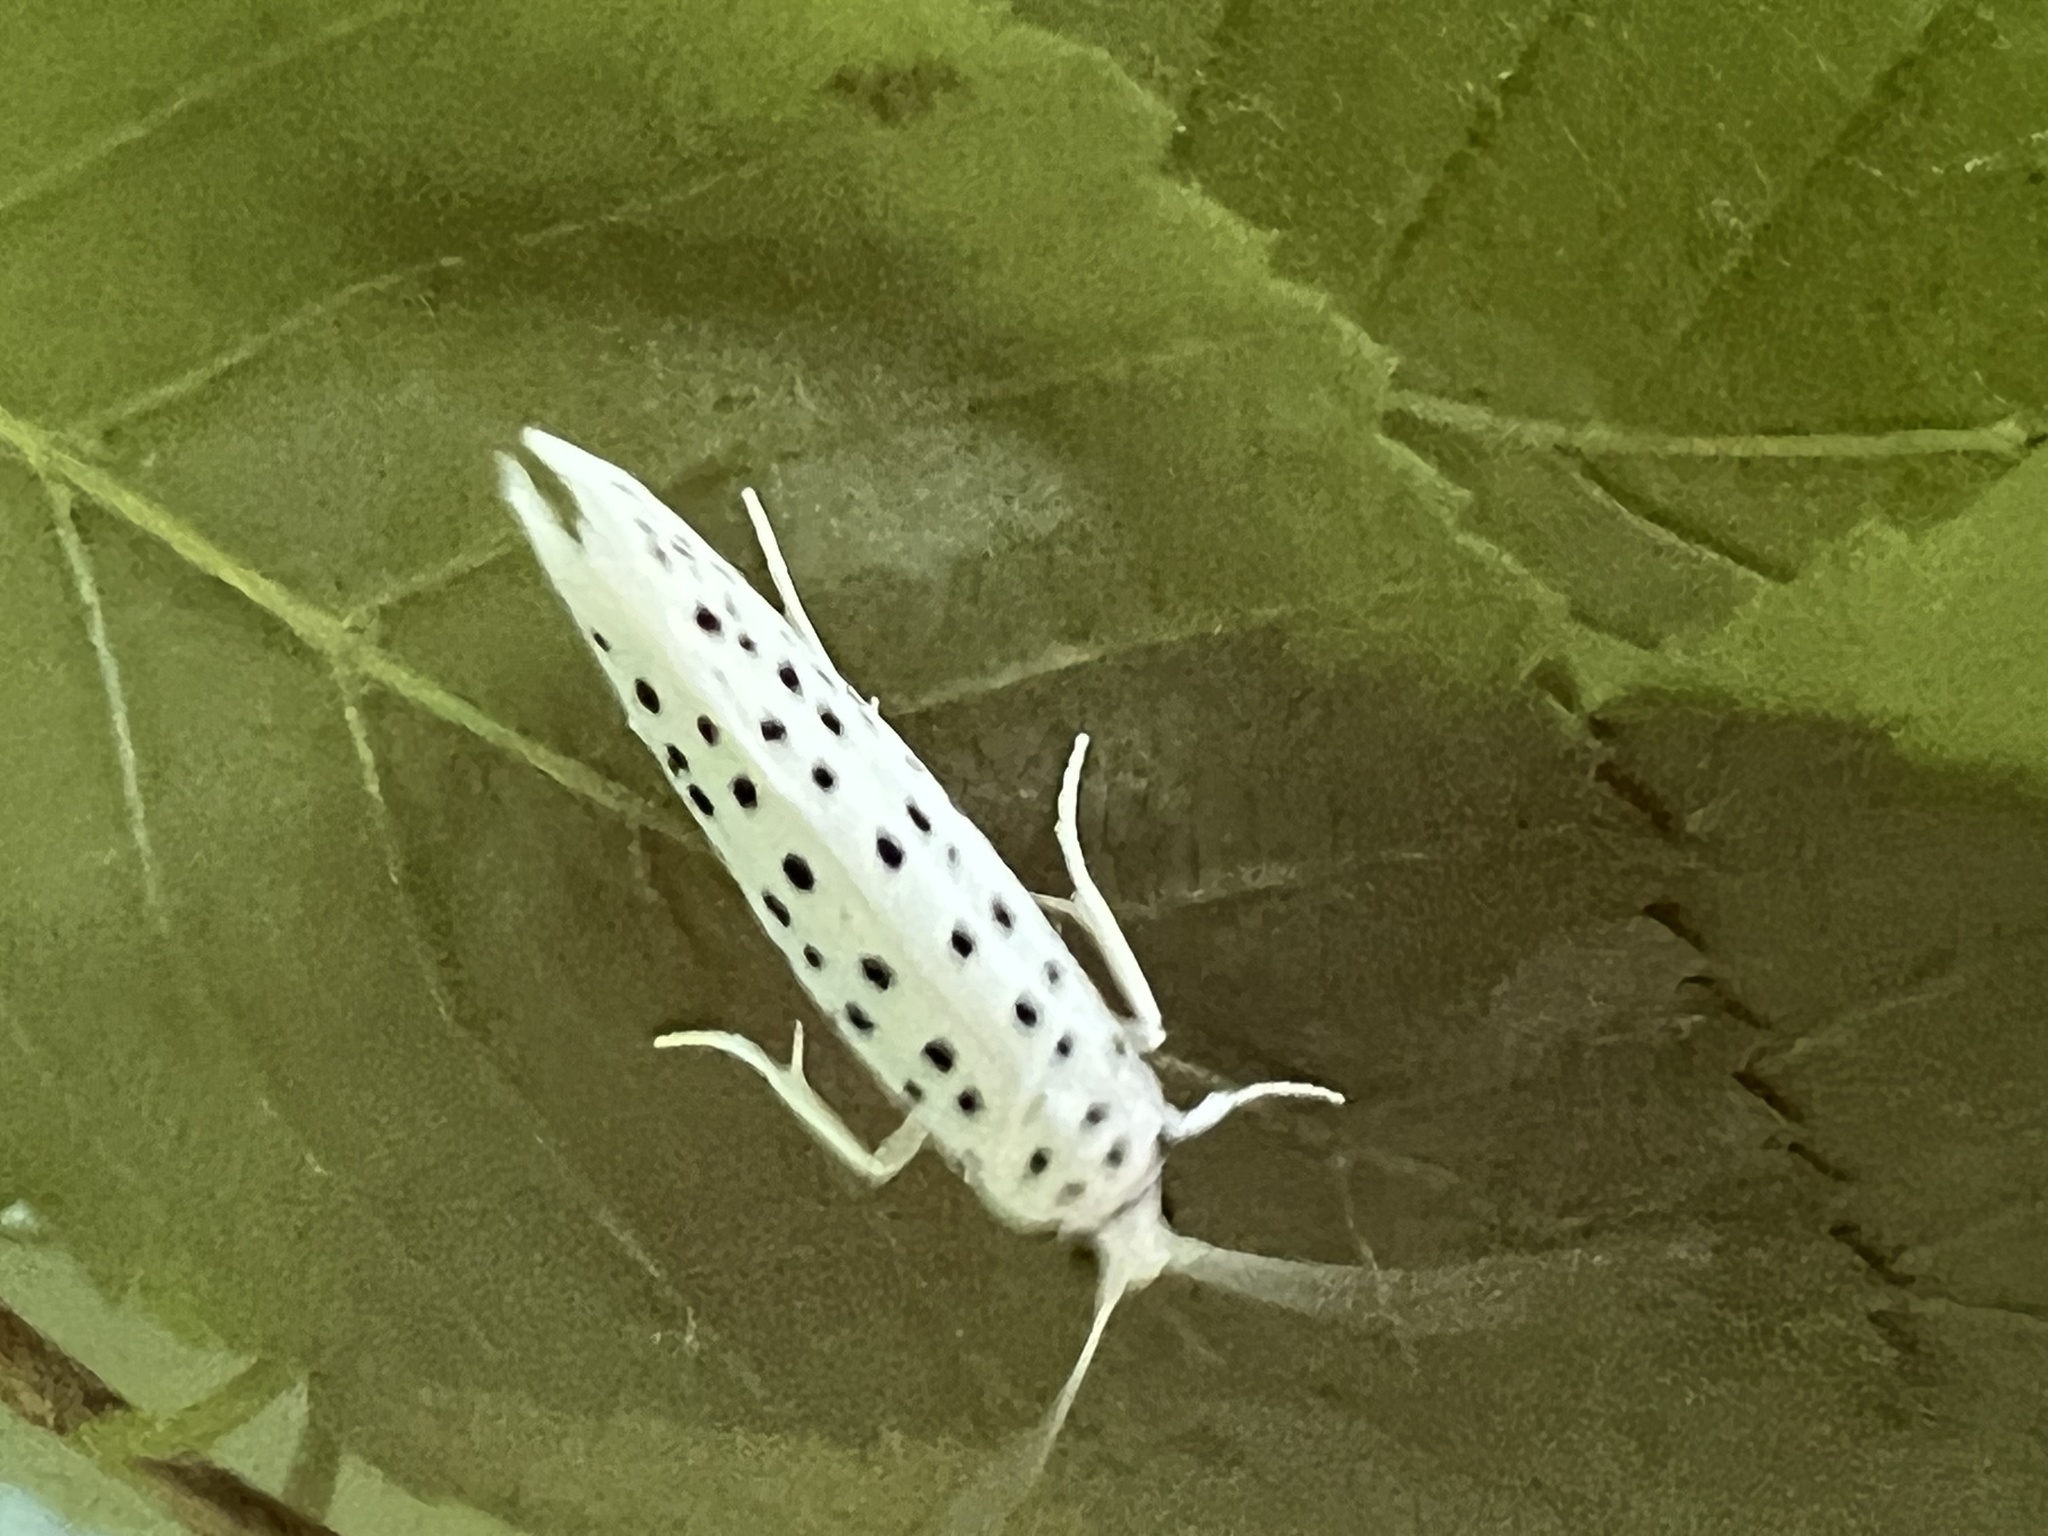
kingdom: Animalia
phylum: Arthropoda
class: Insecta
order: Lepidoptera
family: Yponomeutidae
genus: Yponomeuta
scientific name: Yponomeuta multipunctella
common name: American ermine moth
